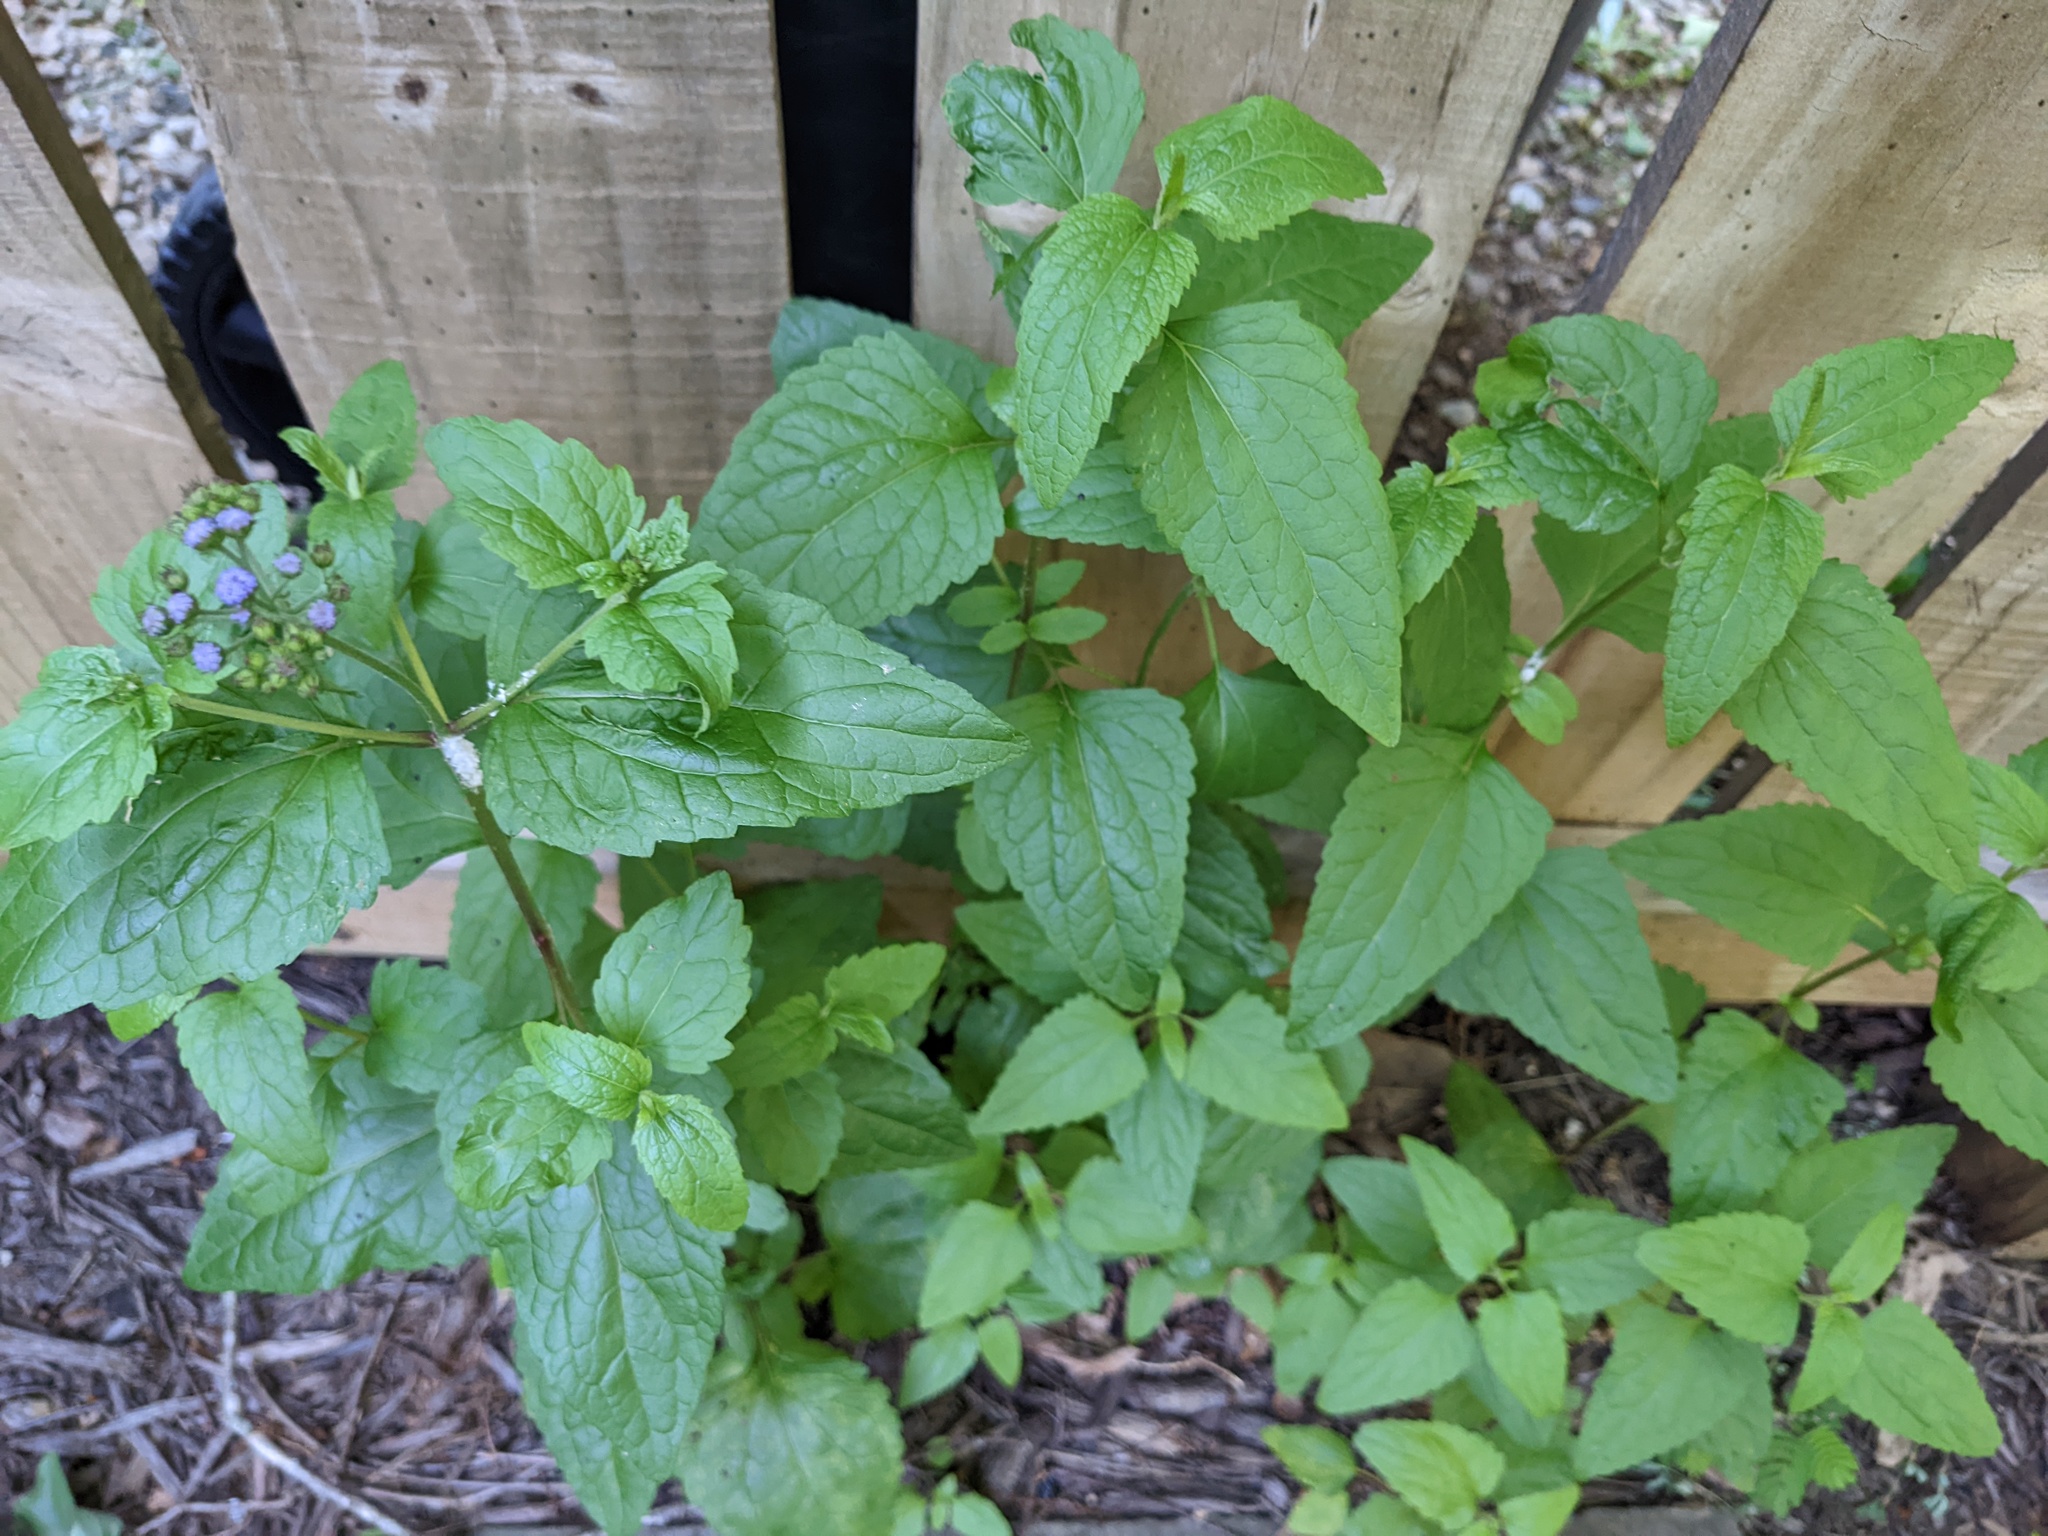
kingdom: Plantae
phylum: Tracheophyta
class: Magnoliopsida
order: Asterales
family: Asteraceae
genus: Conoclinium
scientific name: Conoclinium coelestinum
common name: Blue mistflower
